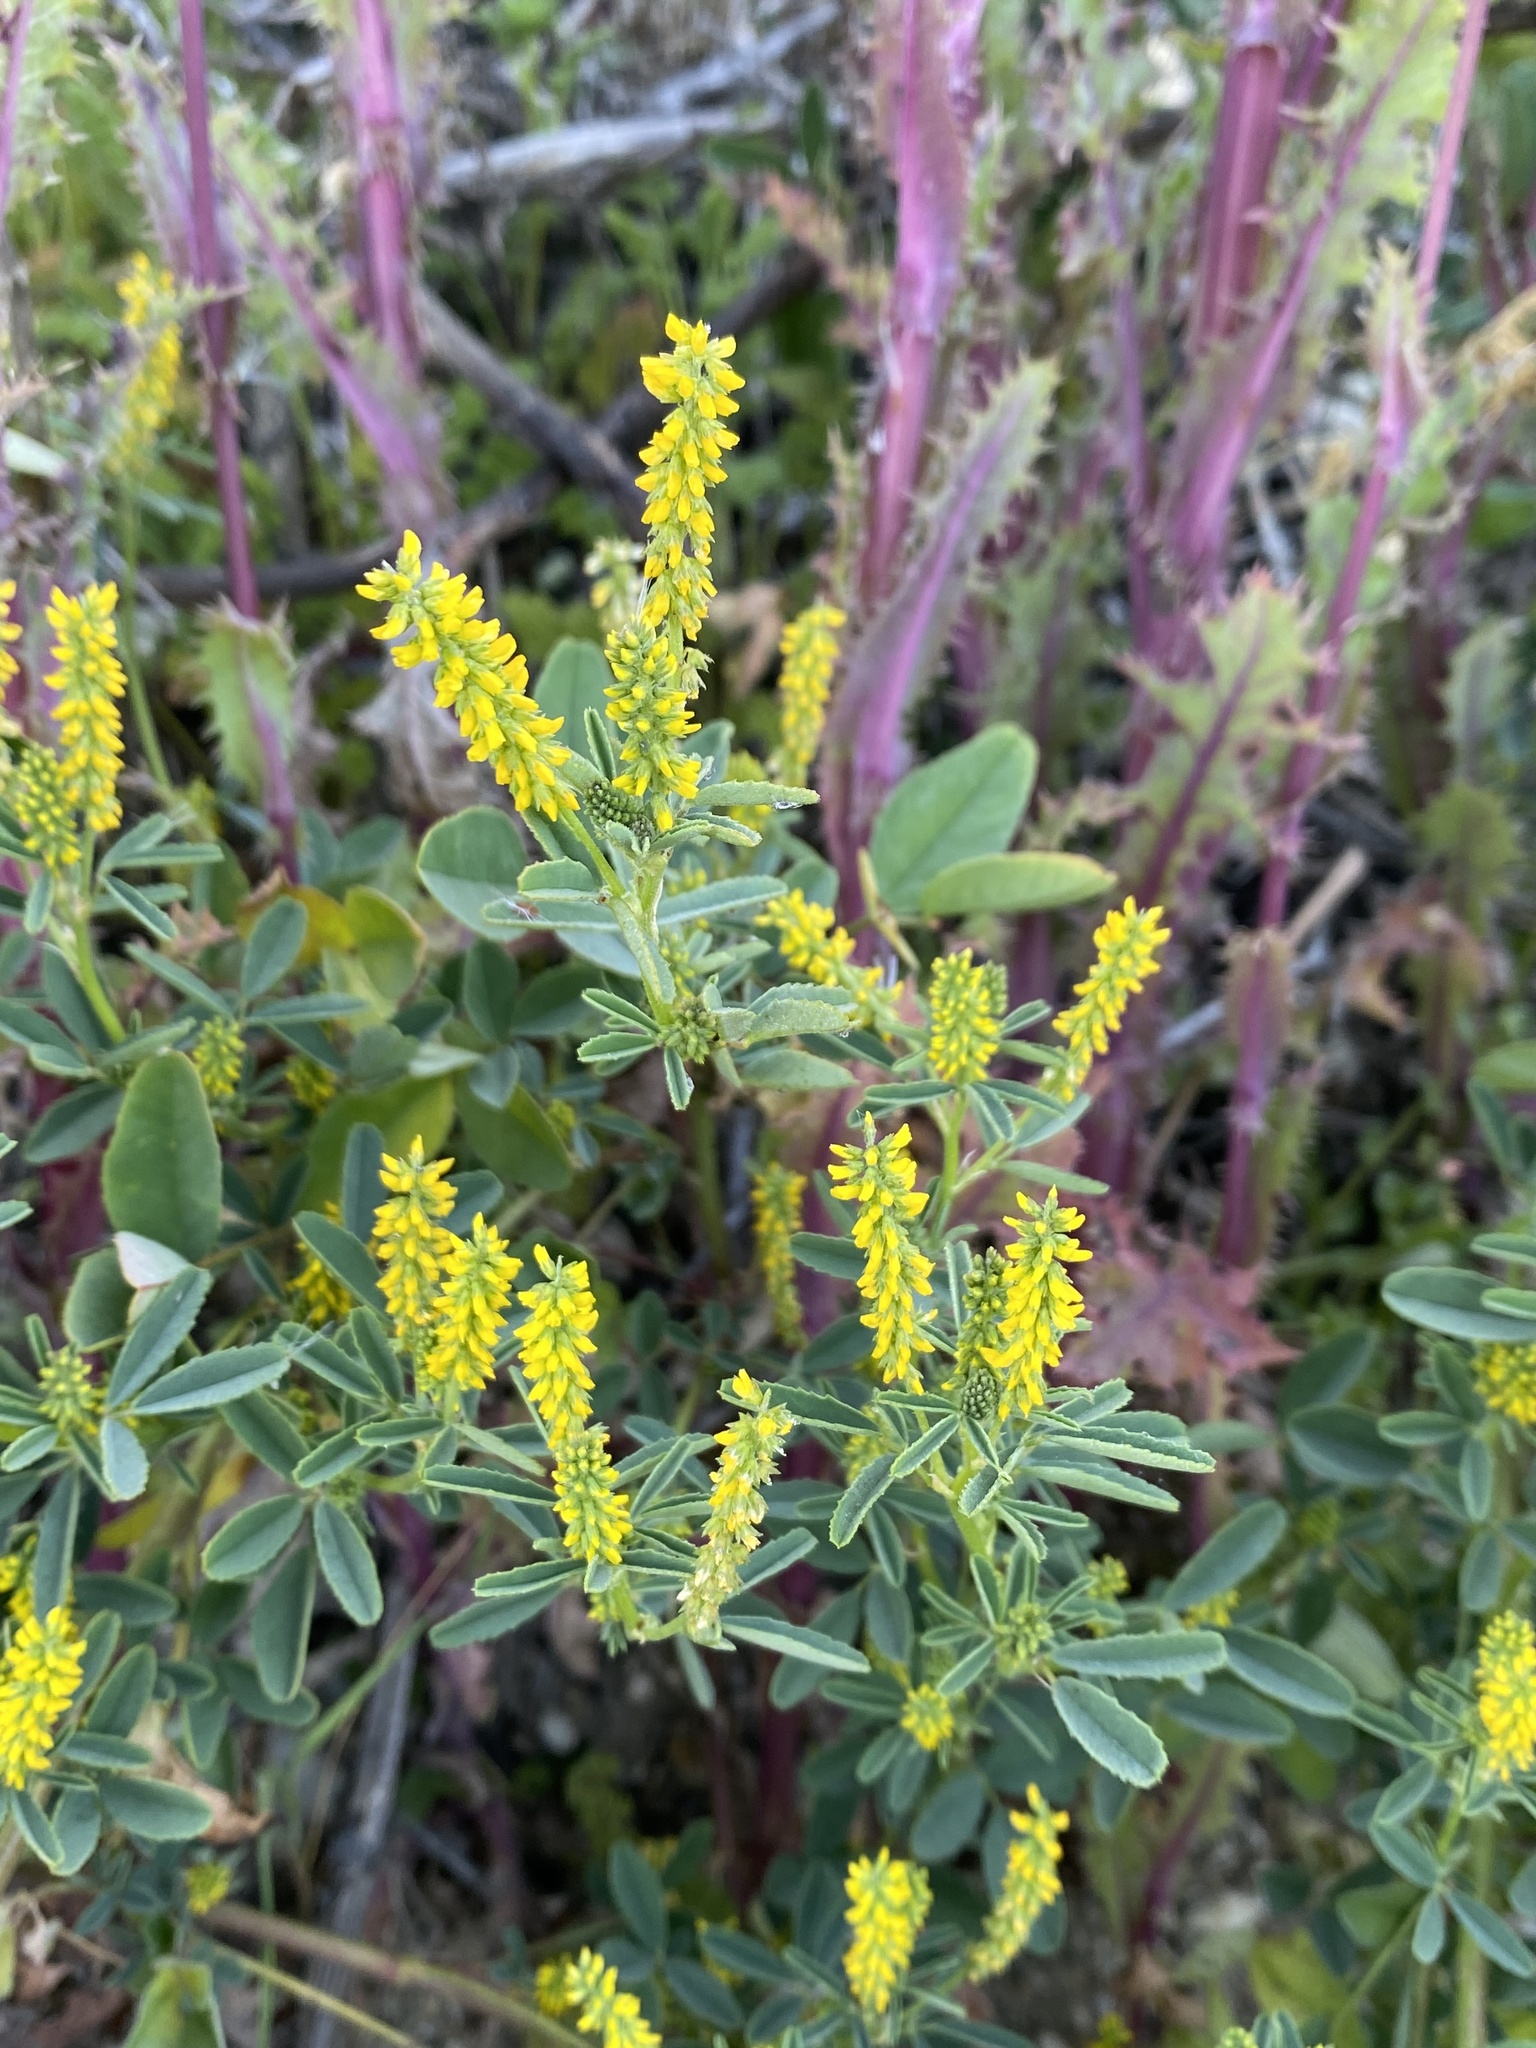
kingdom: Plantae
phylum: Tracheophyta
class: Magnoliopsida
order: Fabales
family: Fabaceae
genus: Melilotus
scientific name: Melilotus indicus
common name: Small melilot
